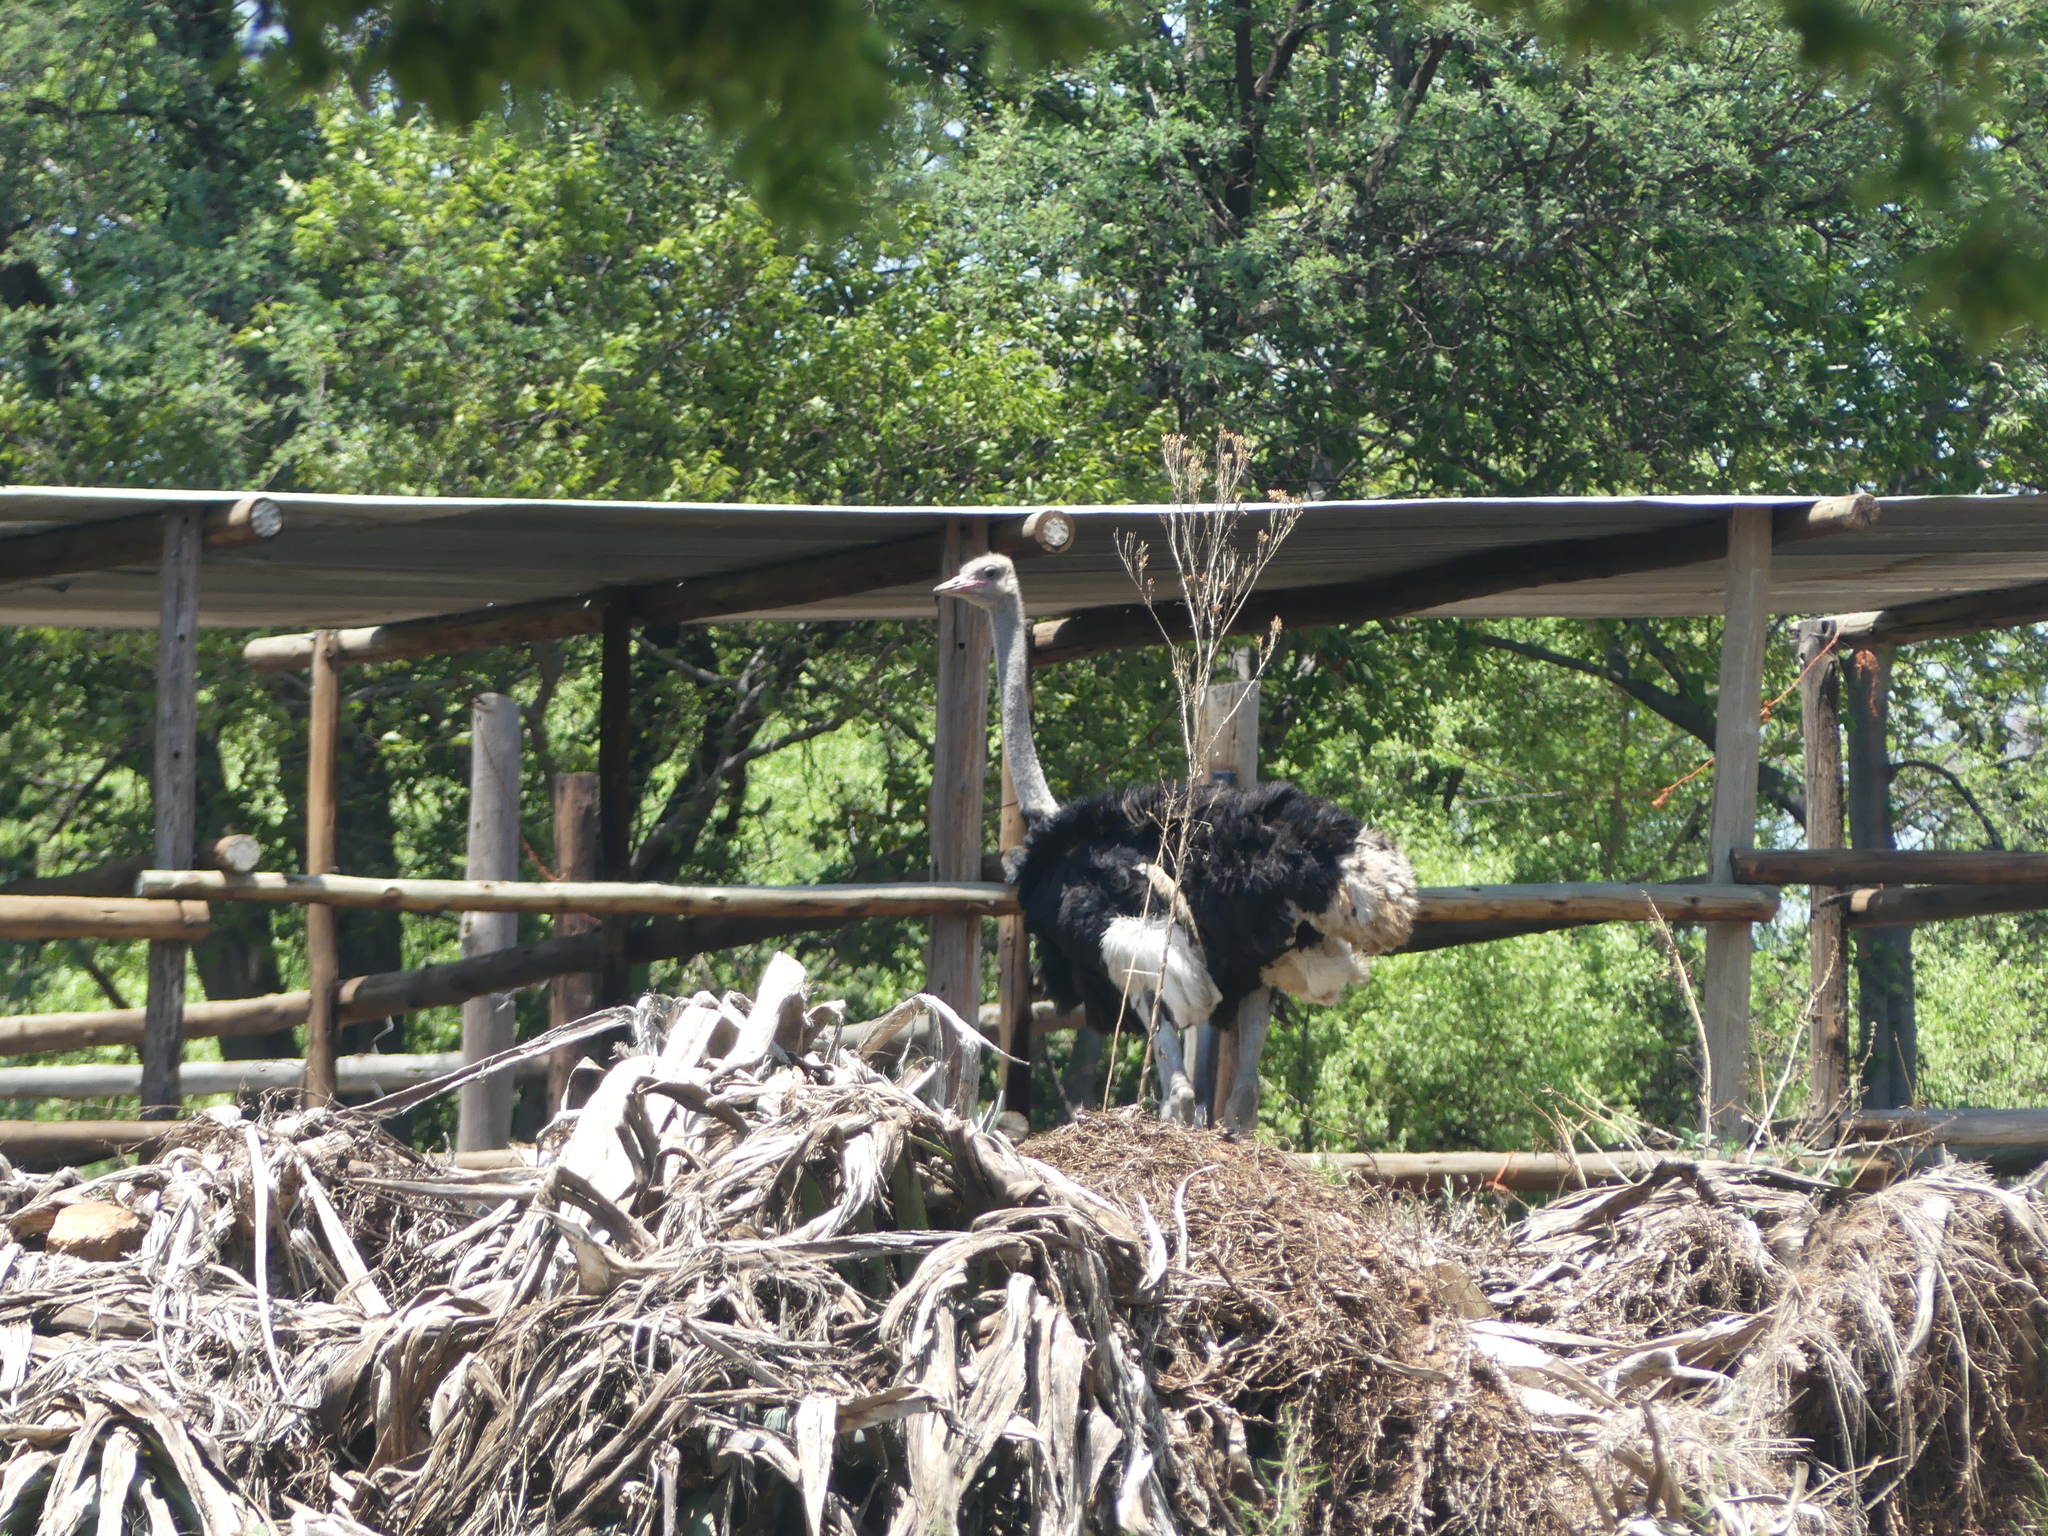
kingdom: Animalia
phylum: Chordata
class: Aves
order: Struthioniformes
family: Struthionidae
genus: Struthio
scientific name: Struthio camelus
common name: Common ostrich
